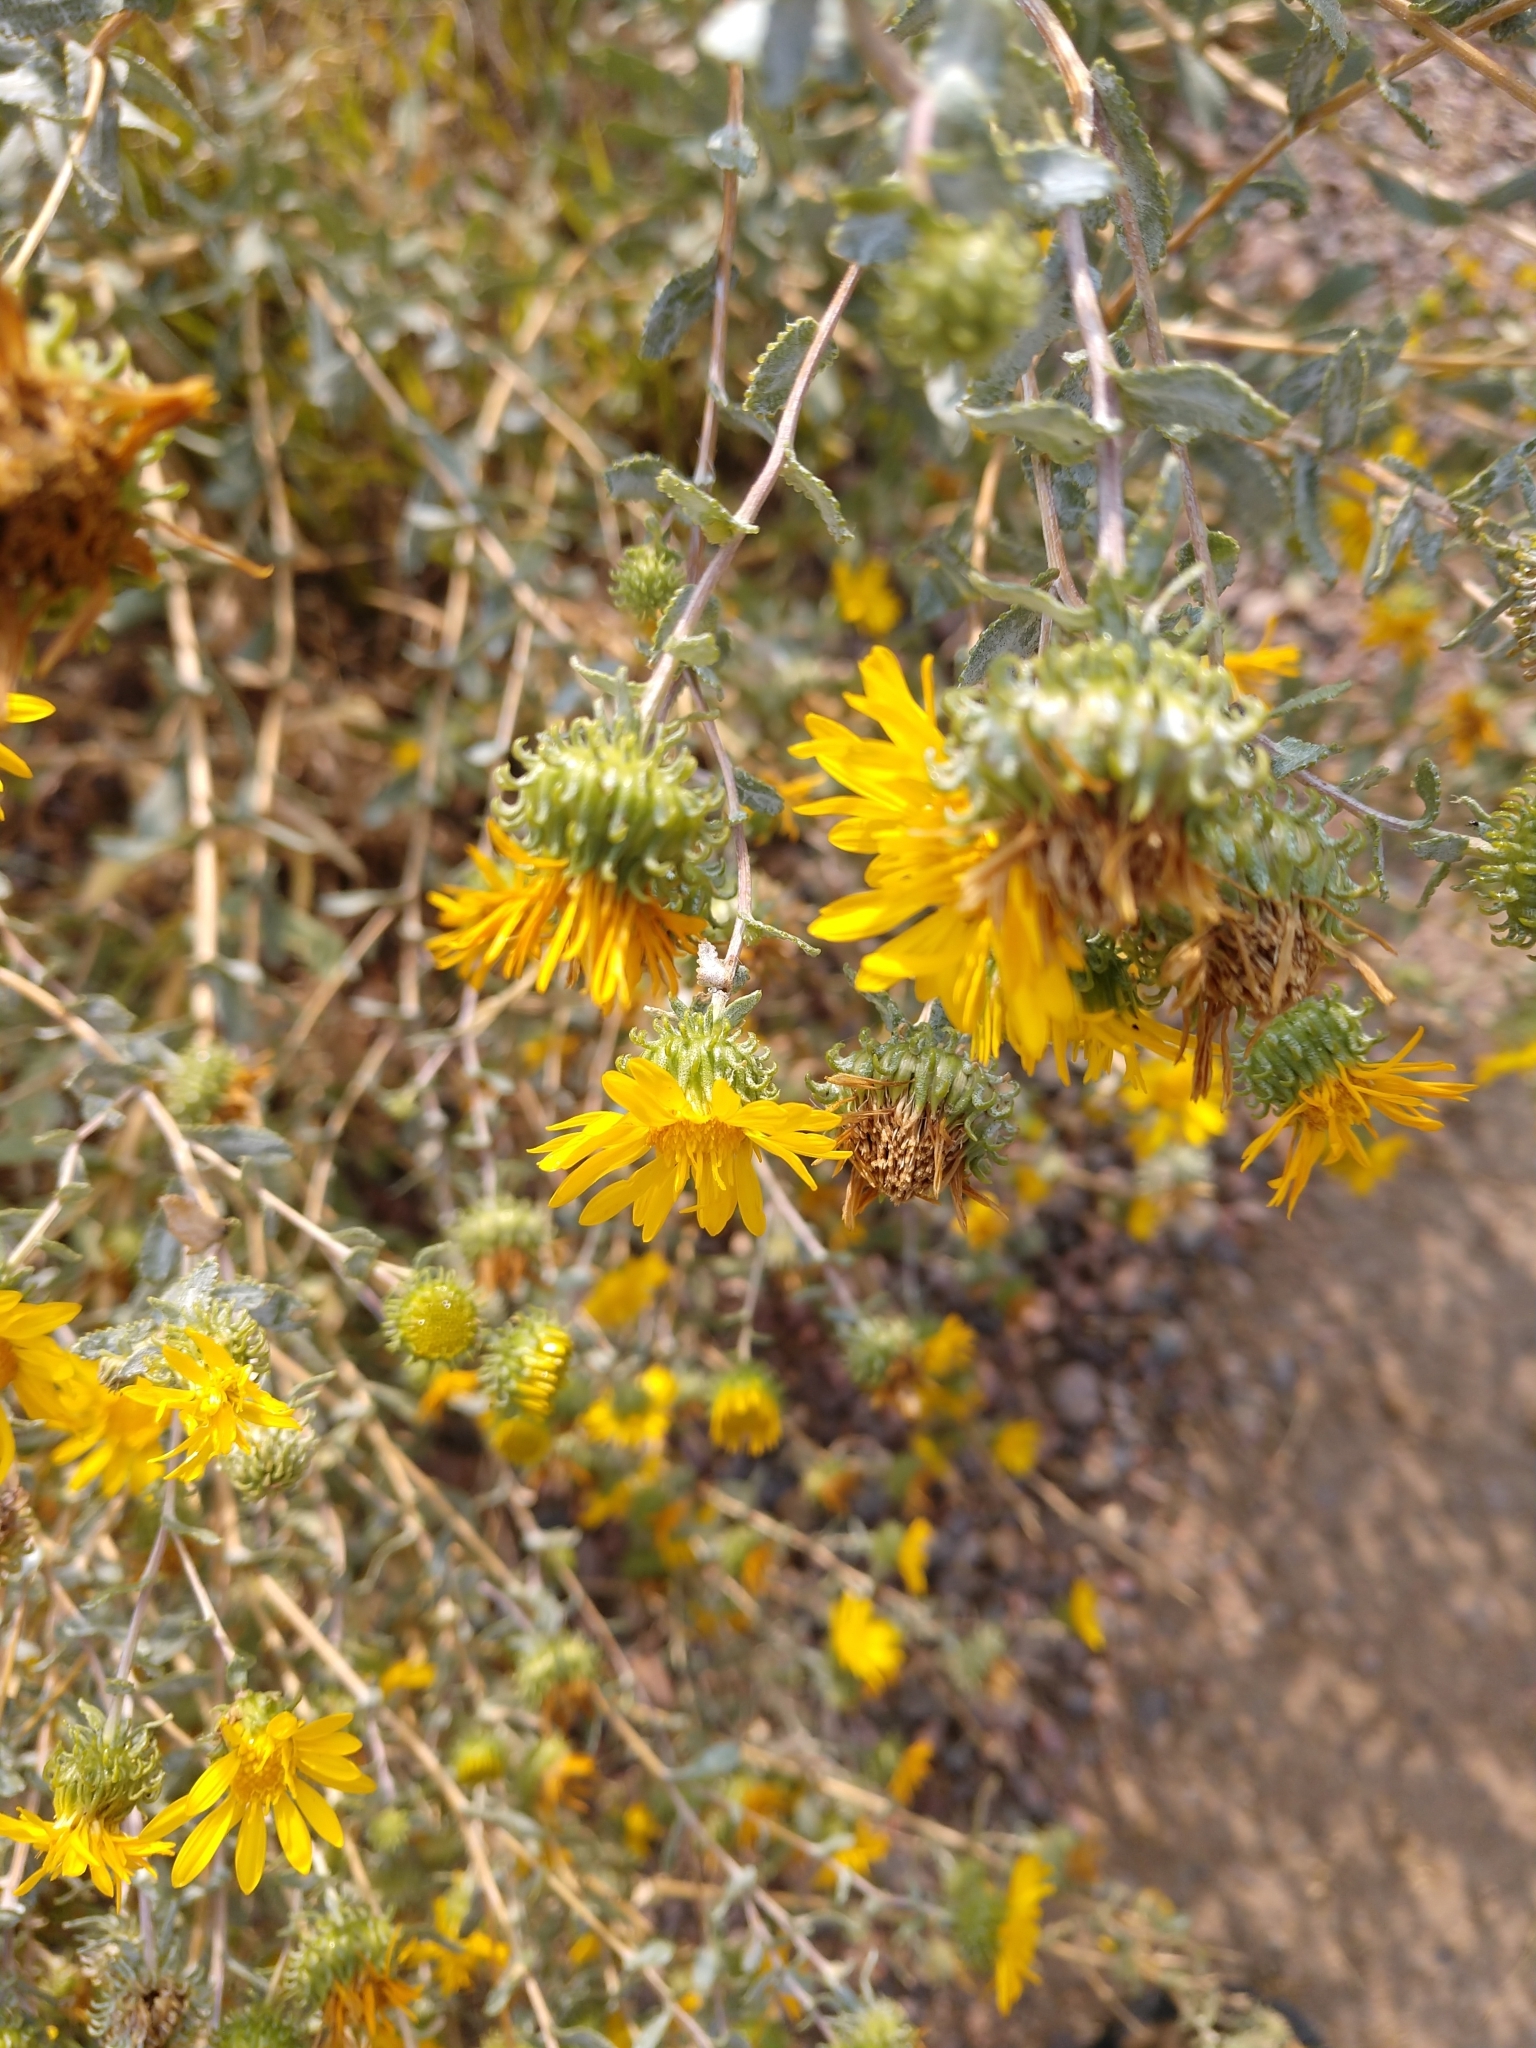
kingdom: Plantae
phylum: Tracheophyta
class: Magnoliopsida
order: Asterales
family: Asteraceae
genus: Grindelia
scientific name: Grindelia squarrosa
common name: Curly-cup gumweed
